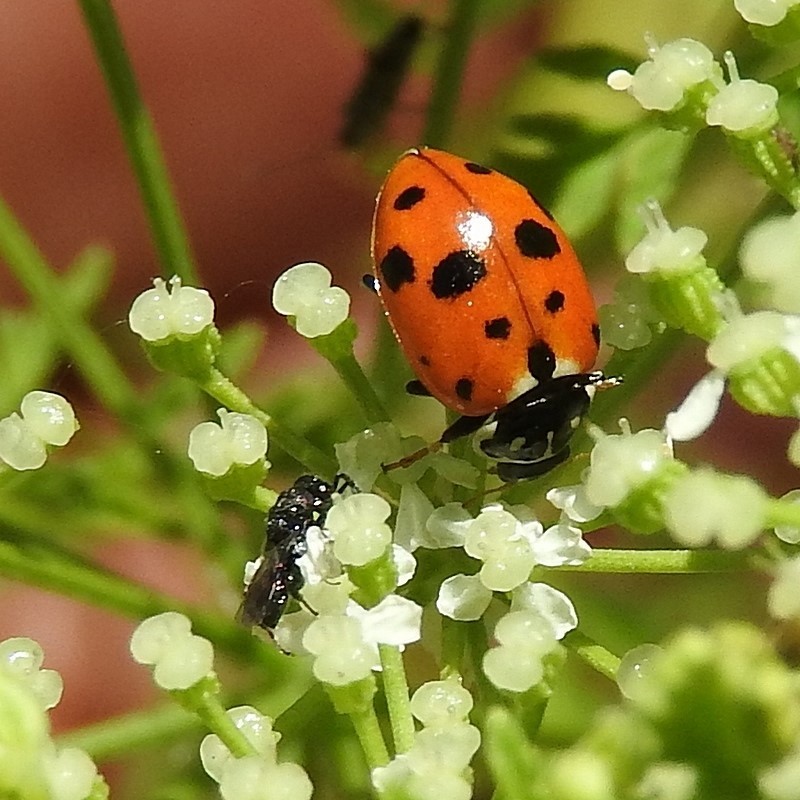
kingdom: Animalia
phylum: Arthropoda
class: Insecta
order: Coleoptera
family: Coccinellidae
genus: Hippodamia
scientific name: Hippodamia variegata
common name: Ladybird beetle
